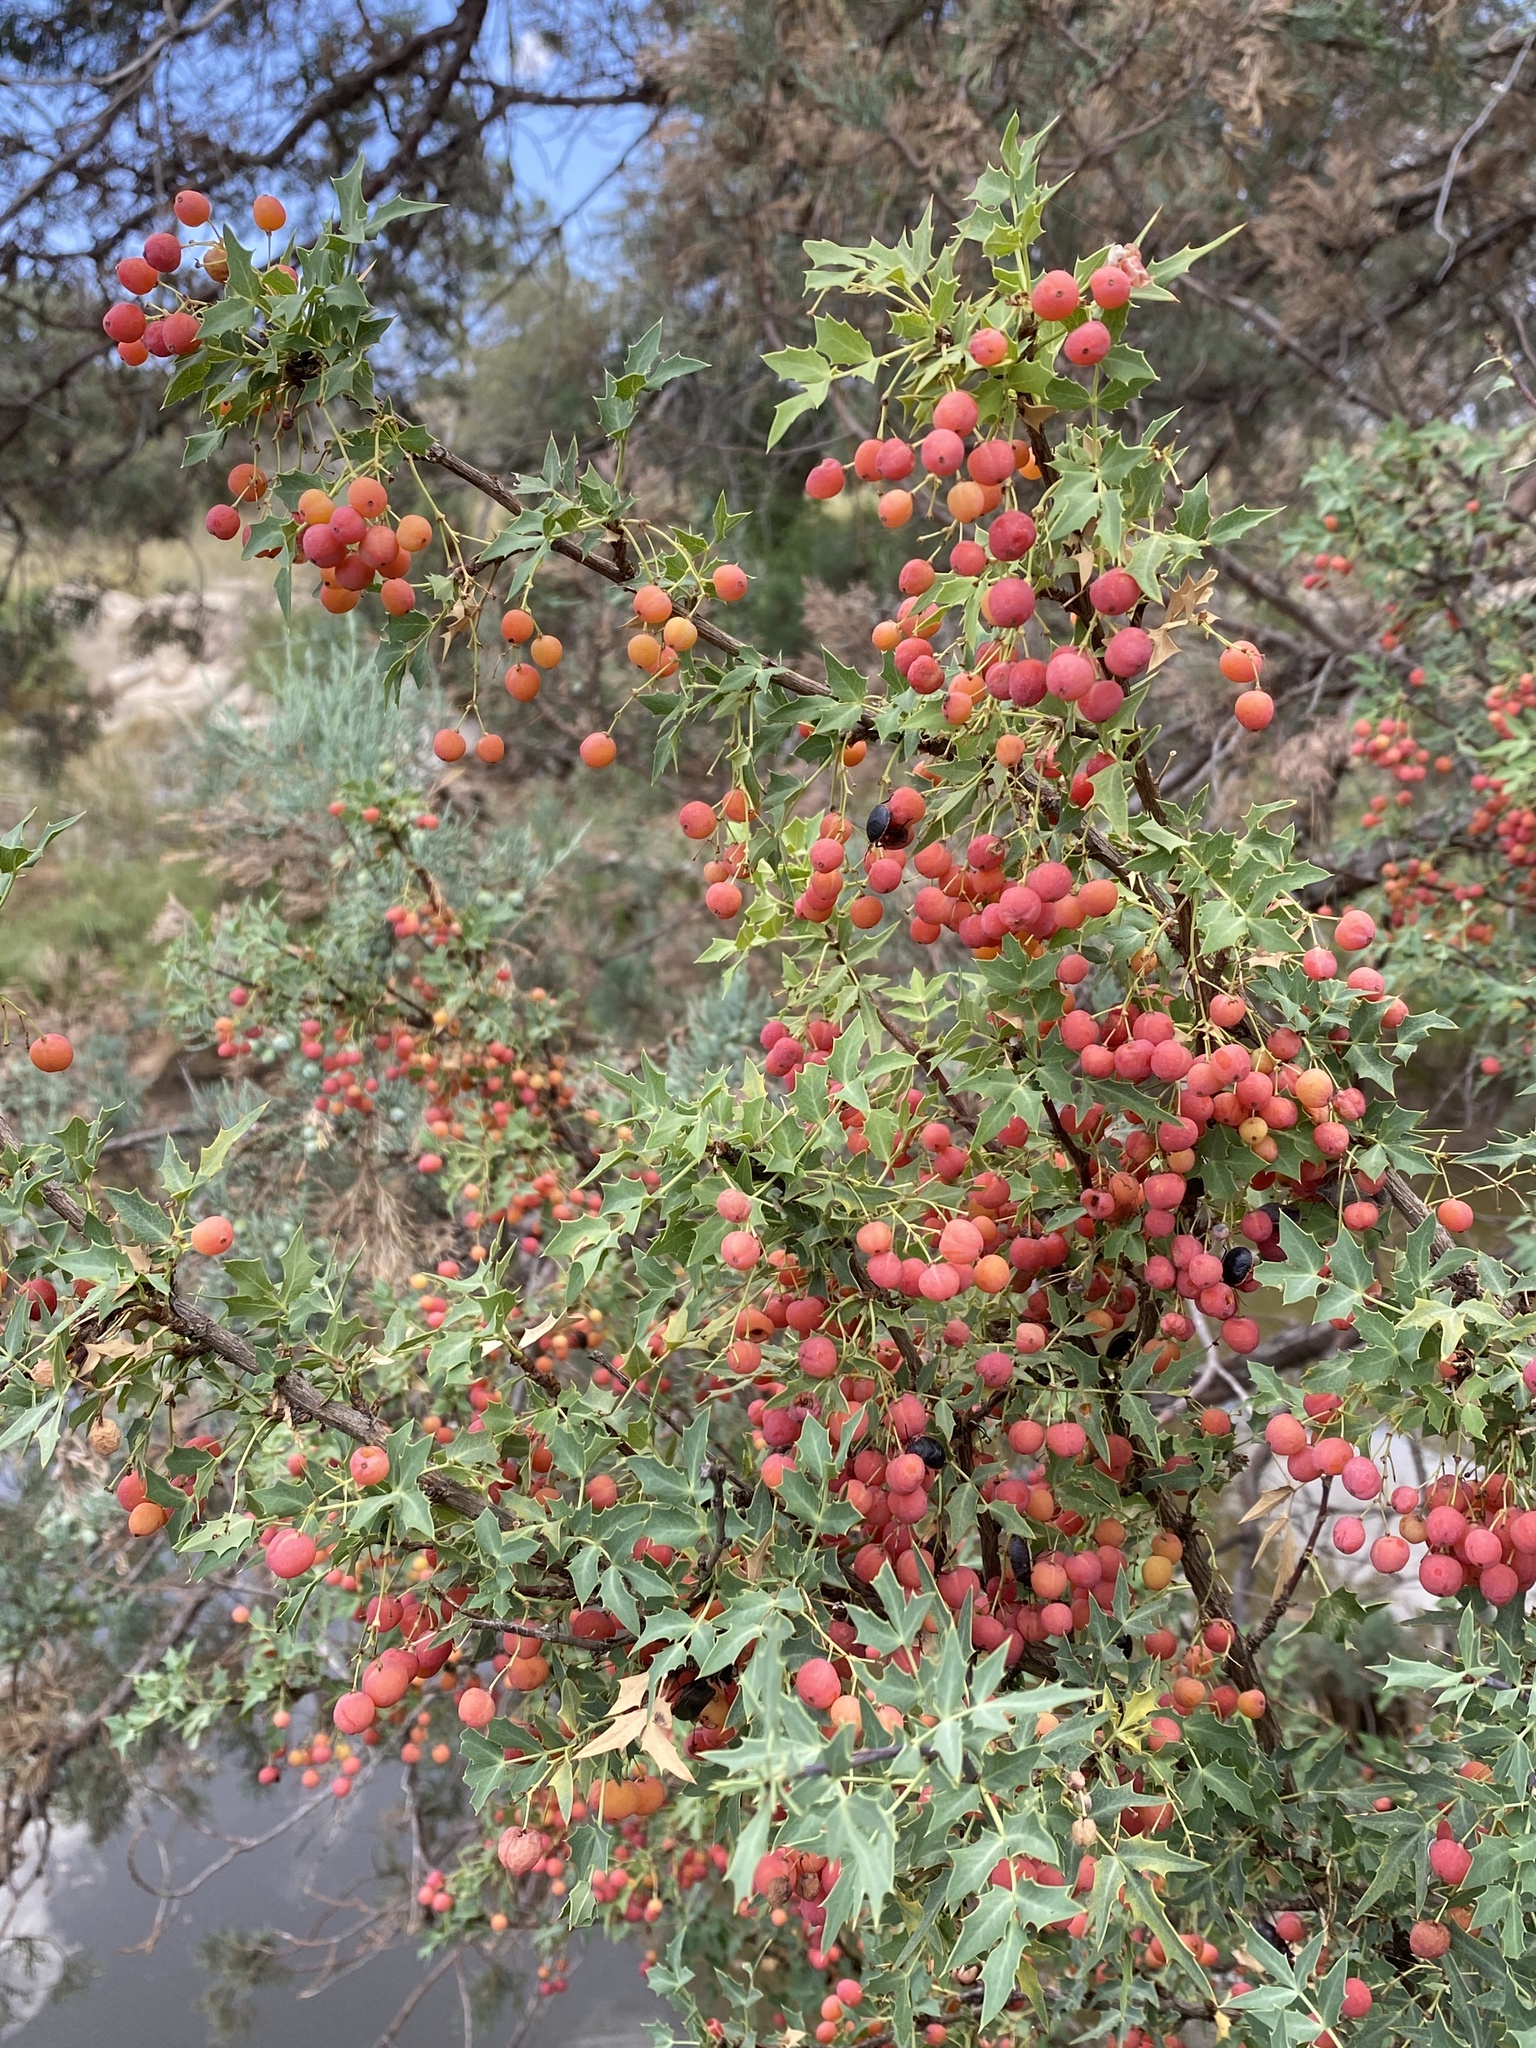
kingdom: Plantae
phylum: Tracheophyta
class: Magnoliopsida
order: Ranunculales
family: Berberidaceae
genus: Alloberberis
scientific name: Alloberberis haematocarpa
